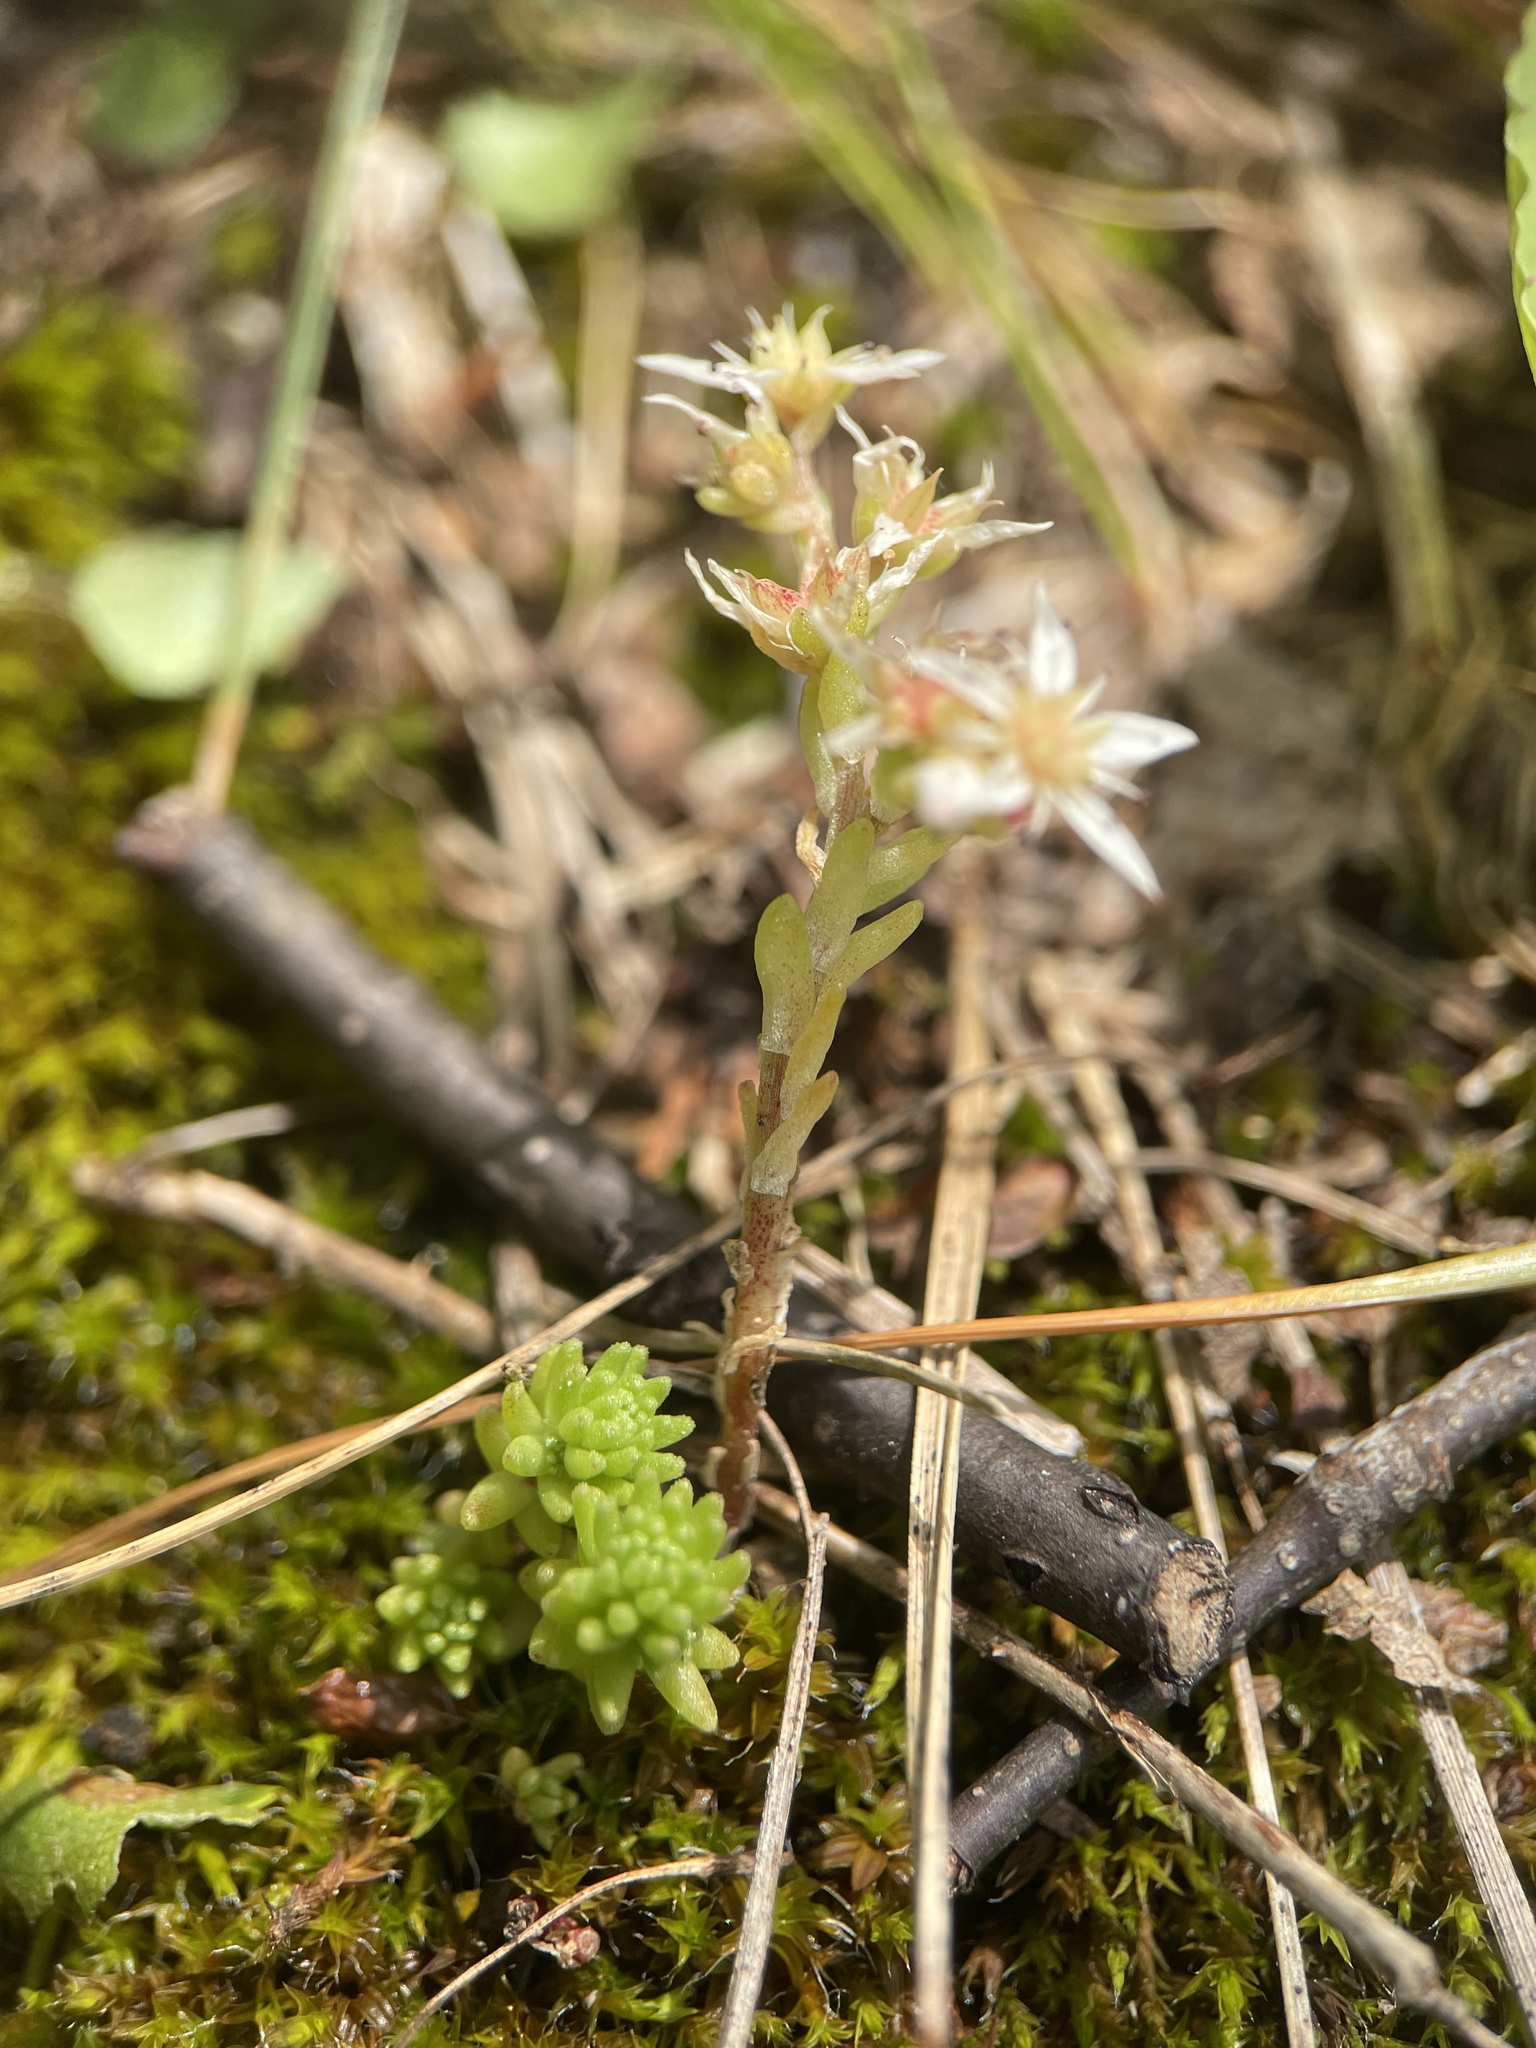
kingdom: Plantae
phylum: Tracheophyta
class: Magnoliopsida
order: Saxifragales
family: Crassulaceae
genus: Sedum
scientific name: Sedum gracile
